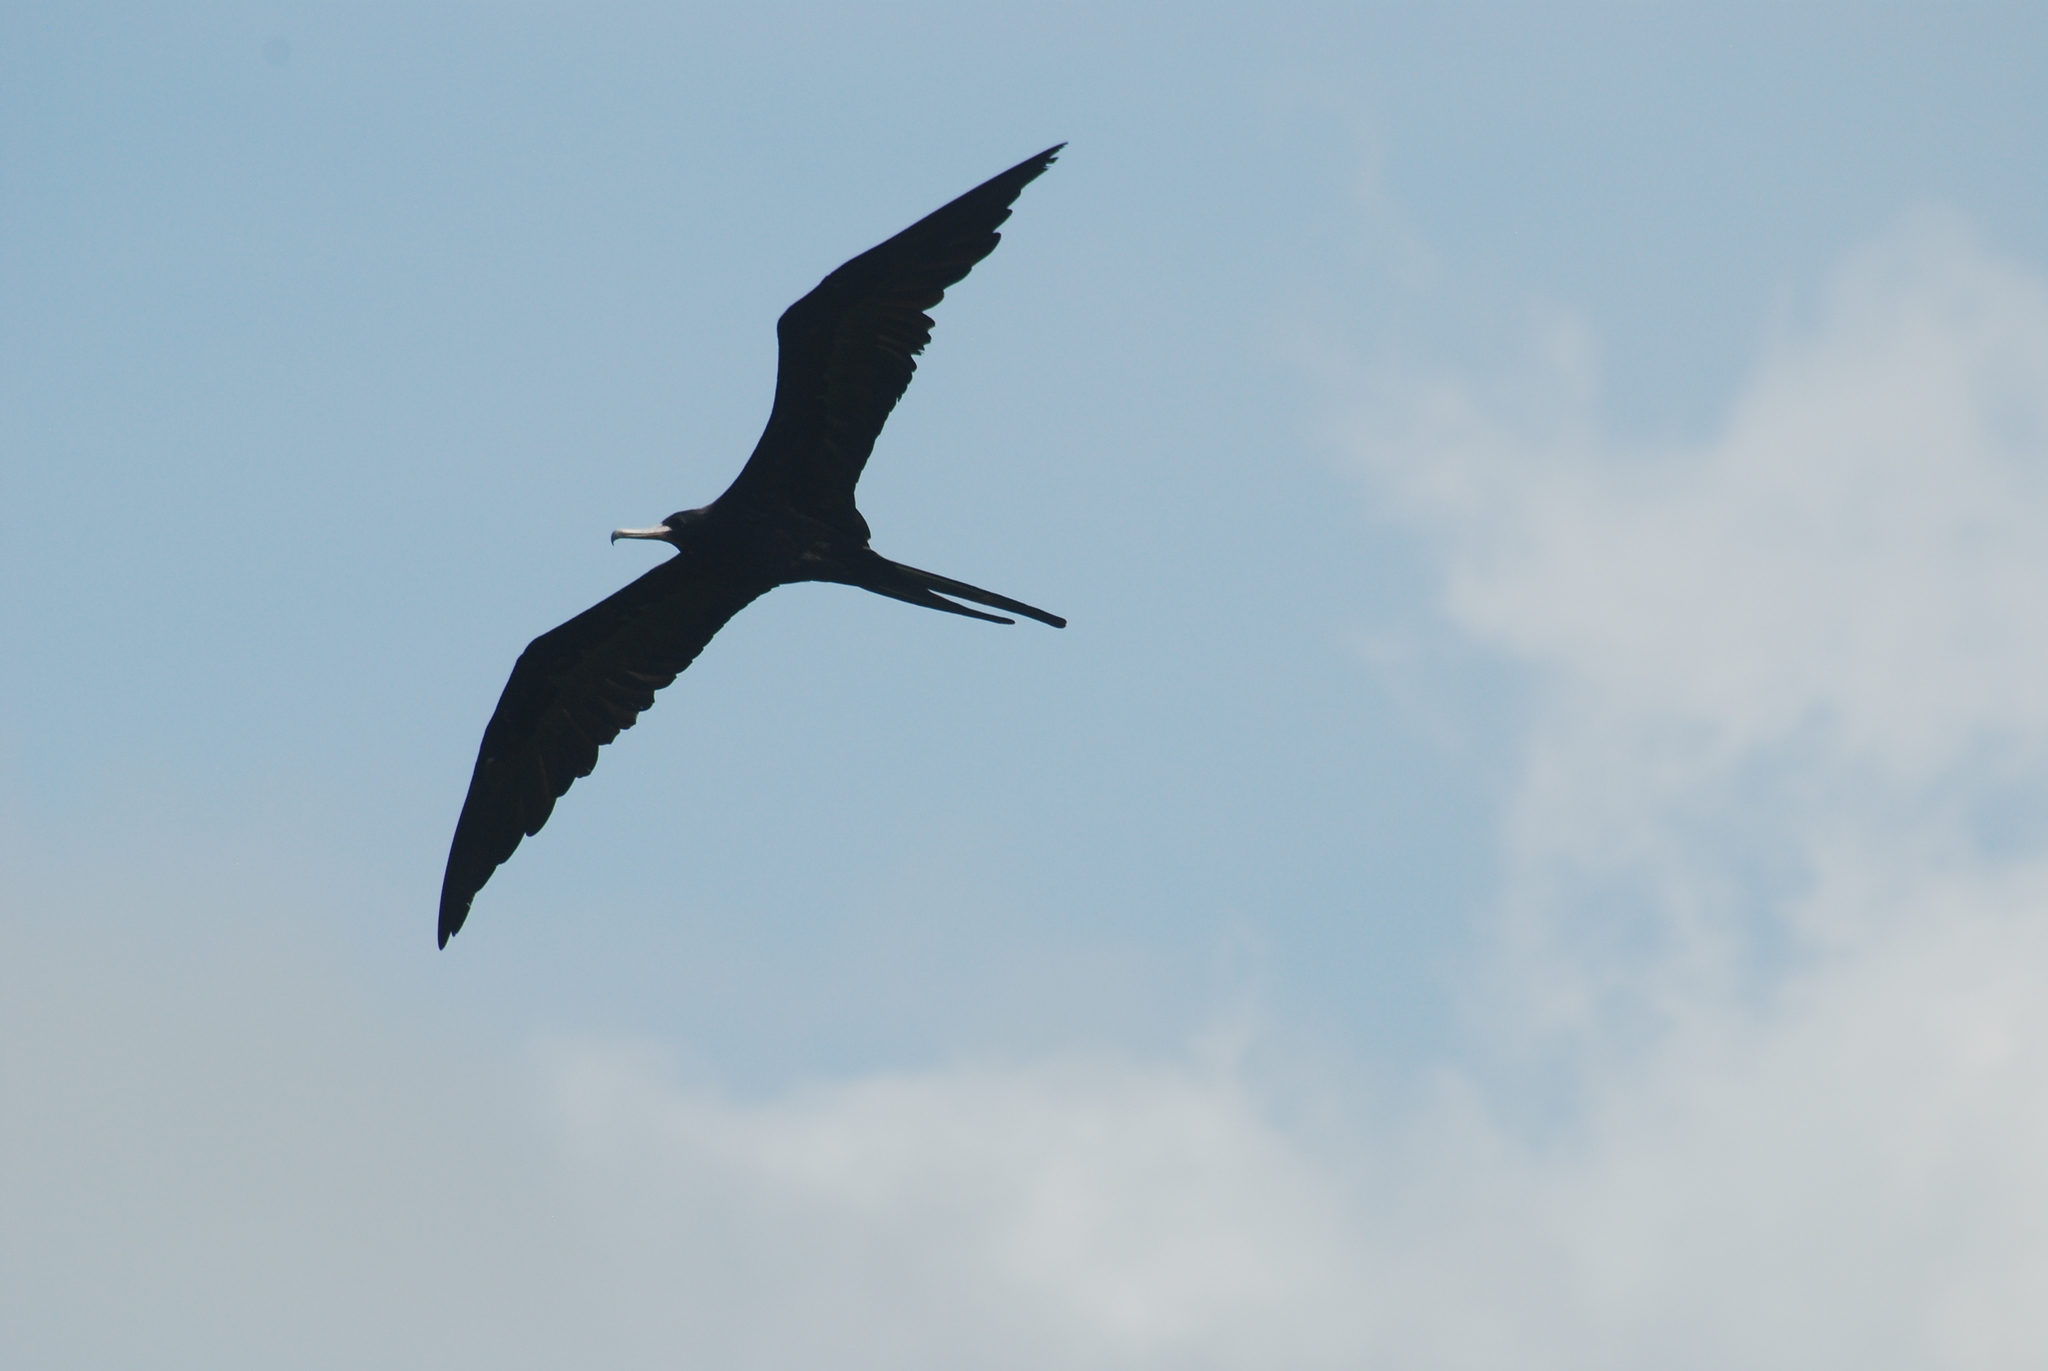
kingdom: Animalia
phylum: Chordata
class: Aves
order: Suliformes
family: Fregatidae
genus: Fregata
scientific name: Fregata magnificens
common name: Magnificent frigatebird
